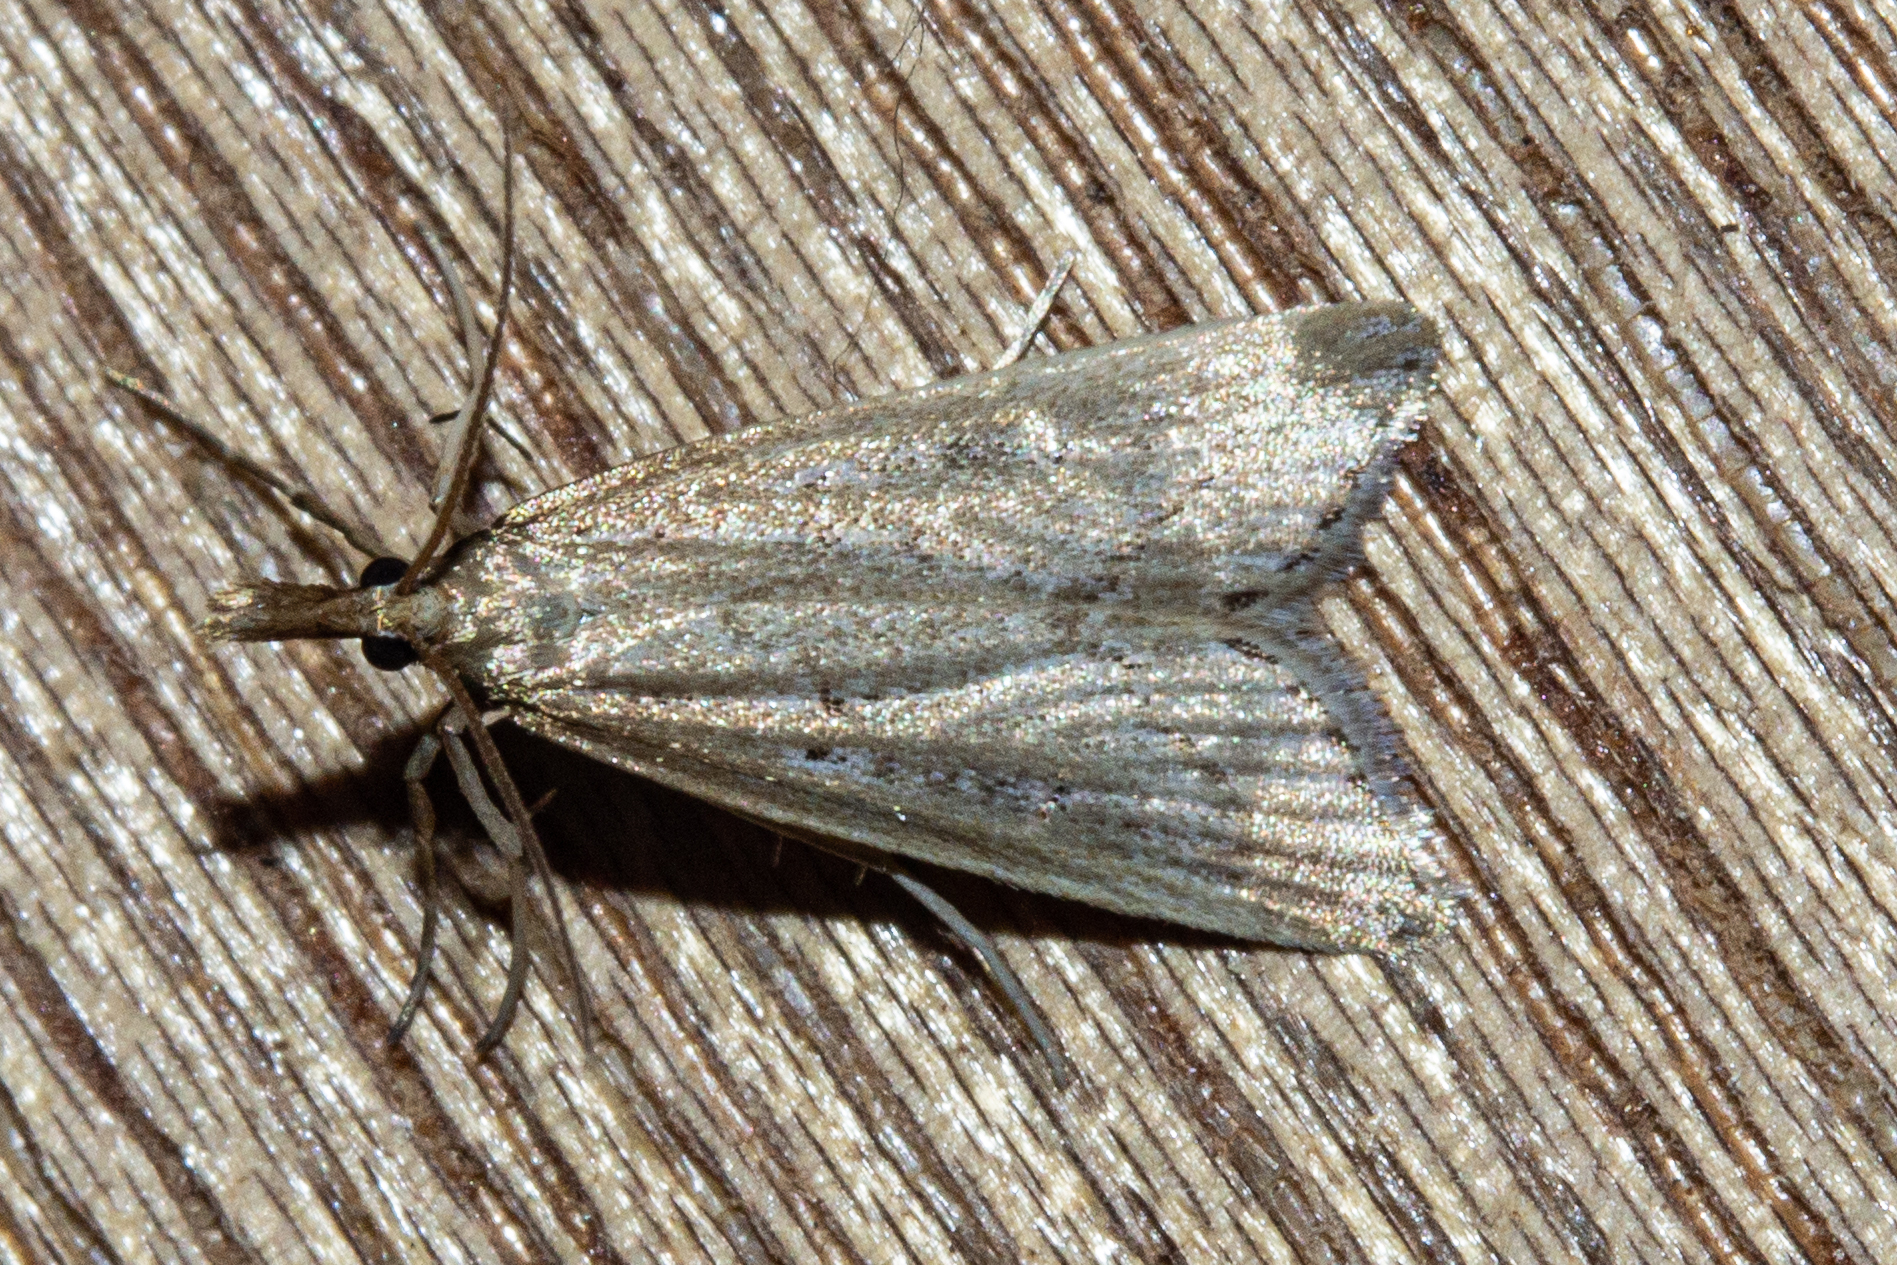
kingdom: Animalia
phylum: Arthropoda
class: Insecta
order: Lepidoptera
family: Crambidae
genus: Antiscopa
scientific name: Antiscopa elaphra
